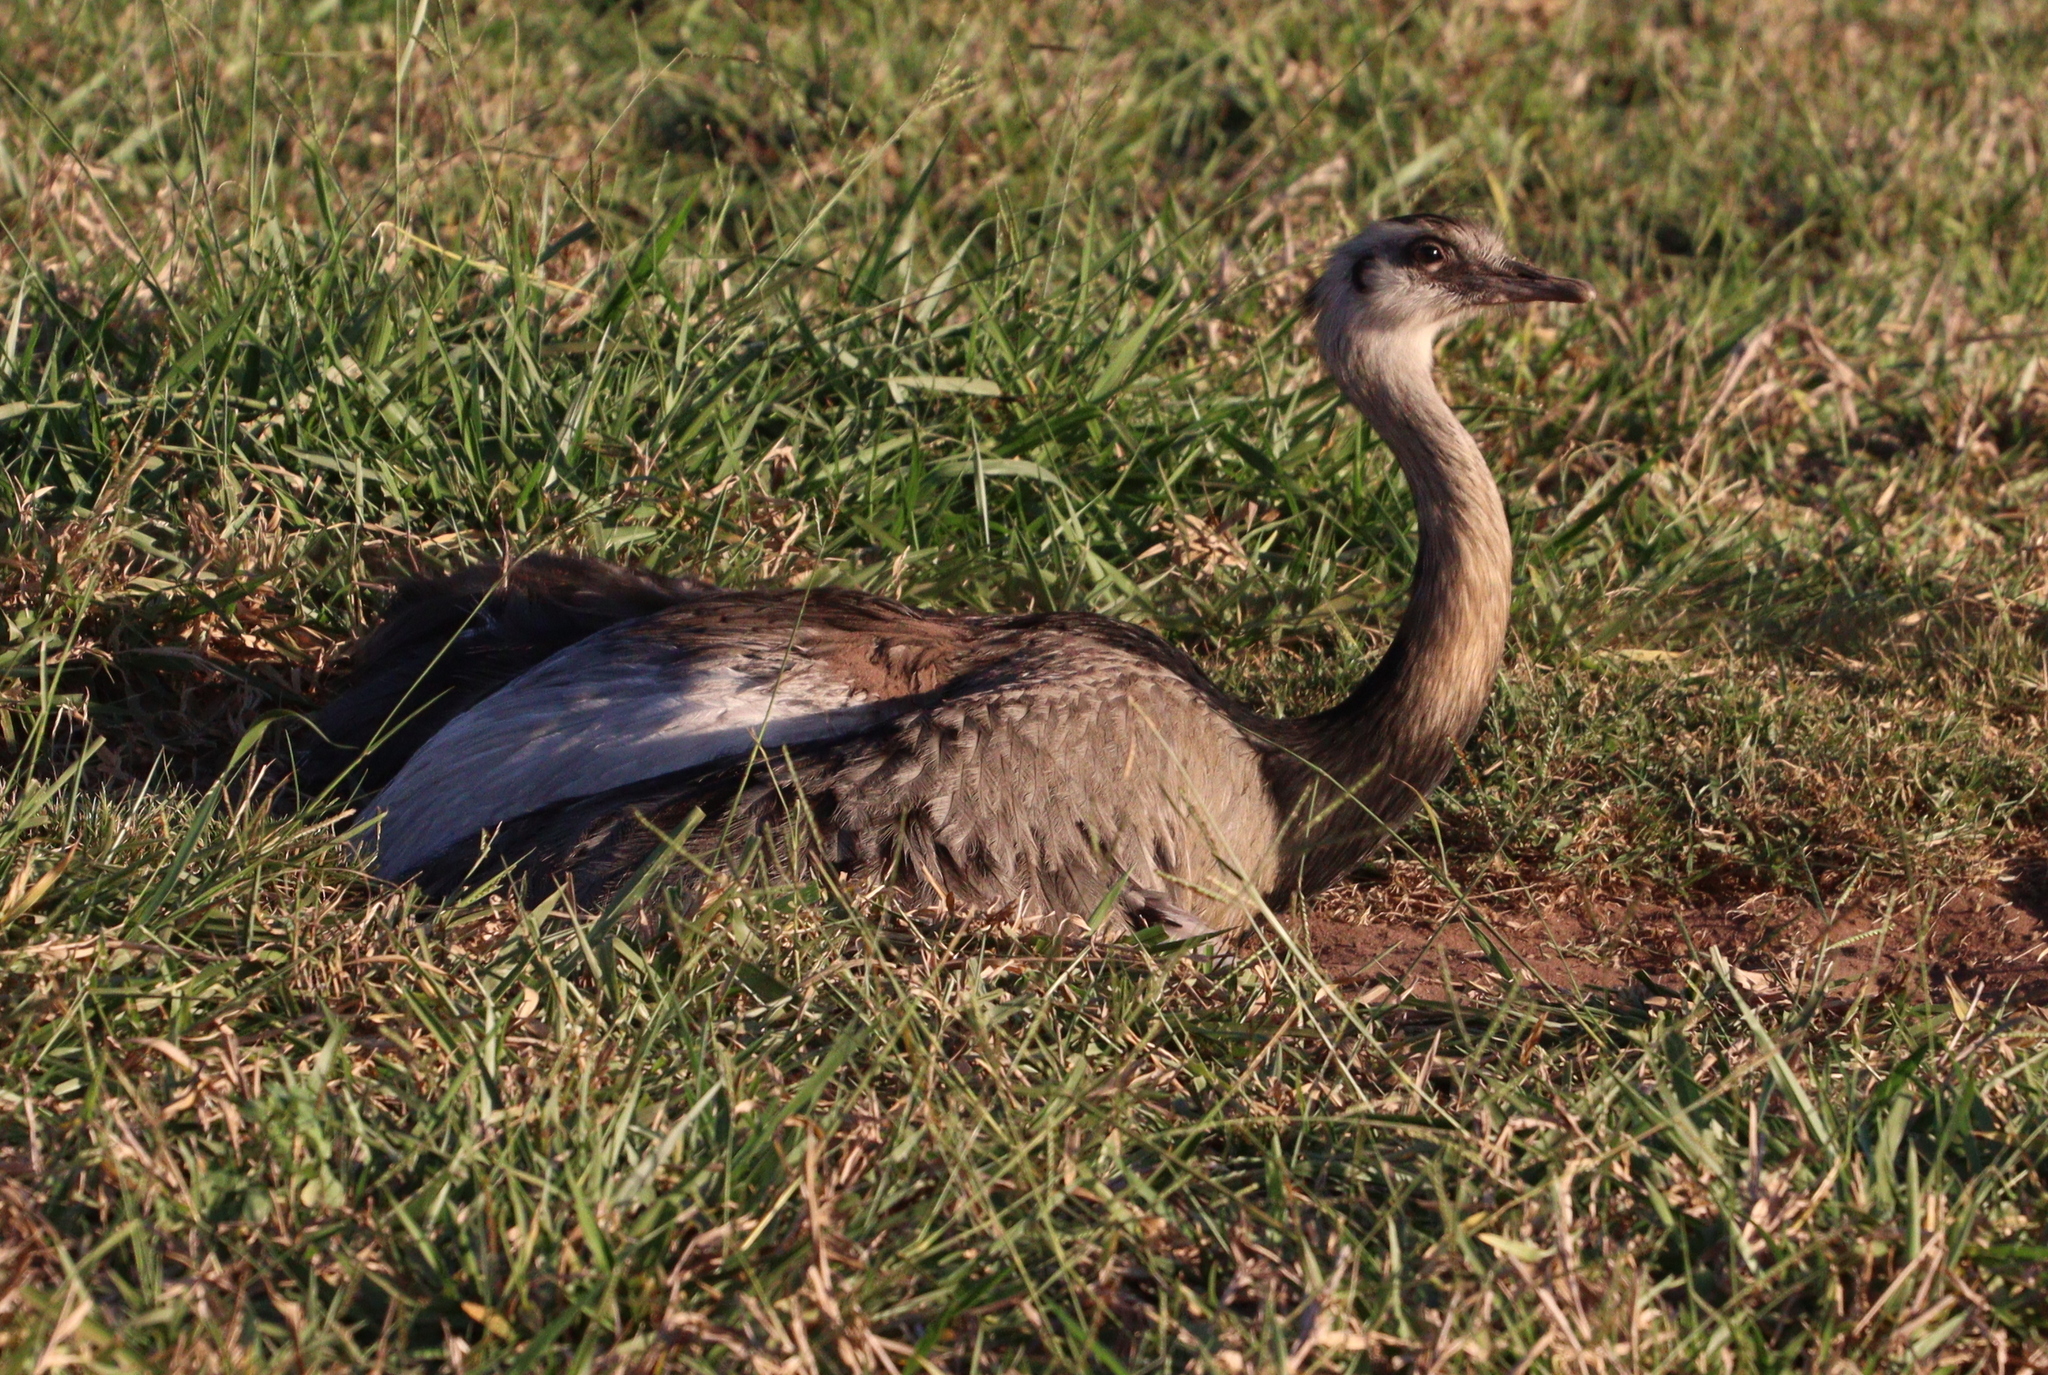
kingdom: Animalia
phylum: Chordata
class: Aves
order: Rheiformes
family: Rheidae
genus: Rhea
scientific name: Rhea americana
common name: Greater rhea
